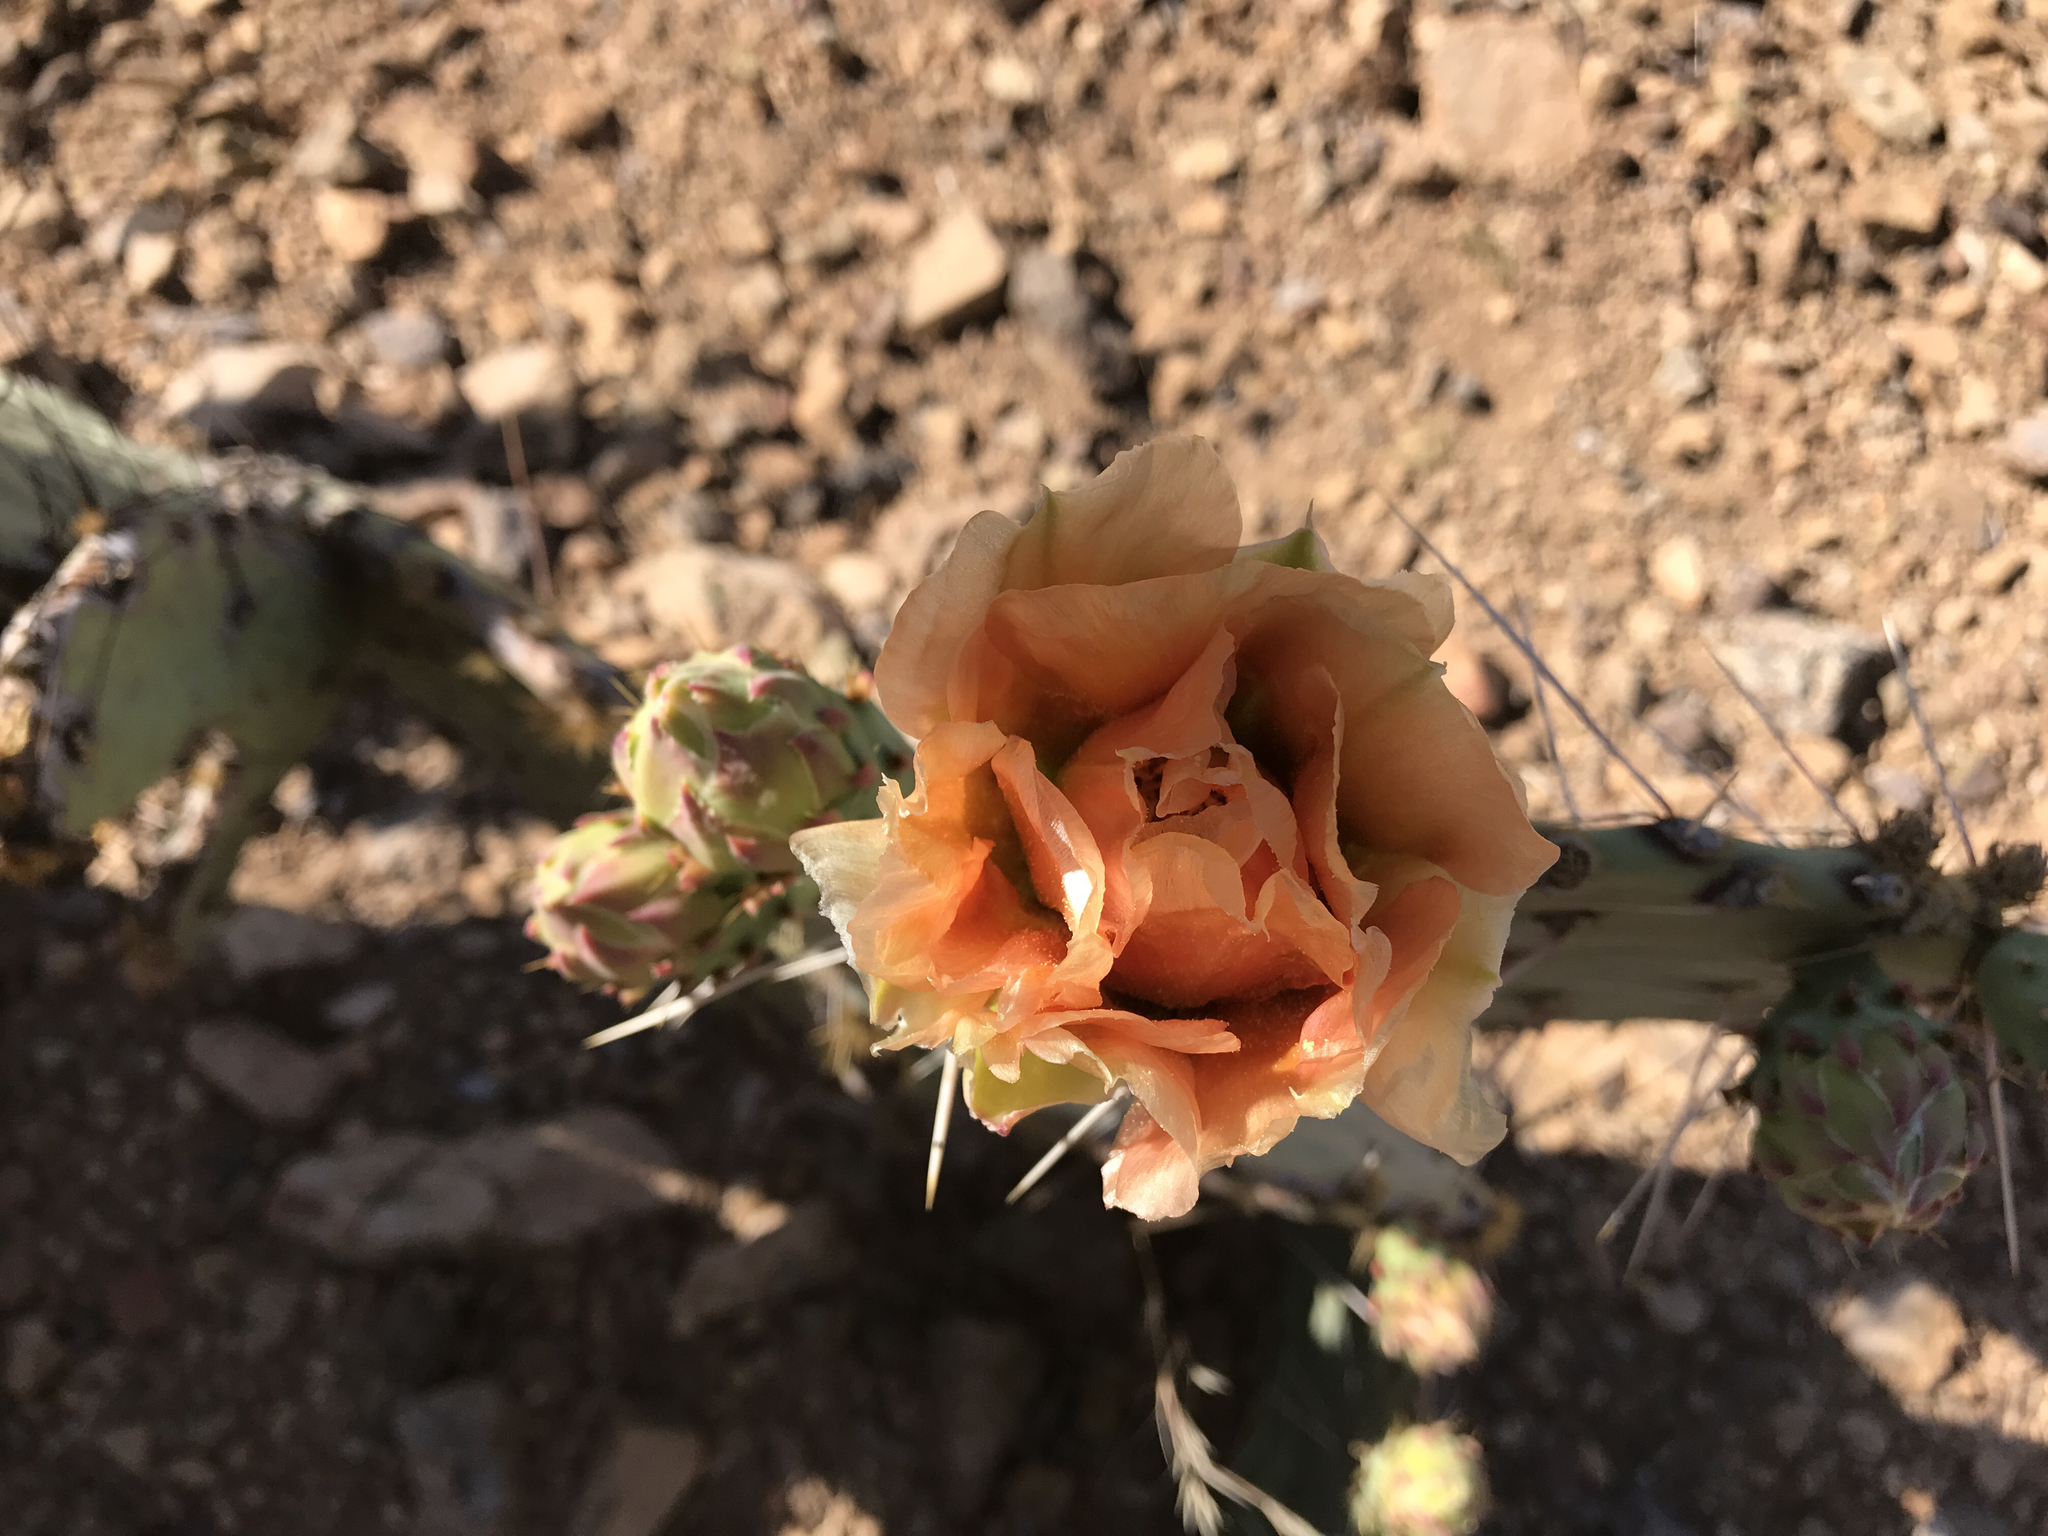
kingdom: Plantae
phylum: Tracheophyta
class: Magnoliopsida
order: Caryophyllales
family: Cactaceae
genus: Opuntia
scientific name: Opuntia engelmannii
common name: Cactus-apple
